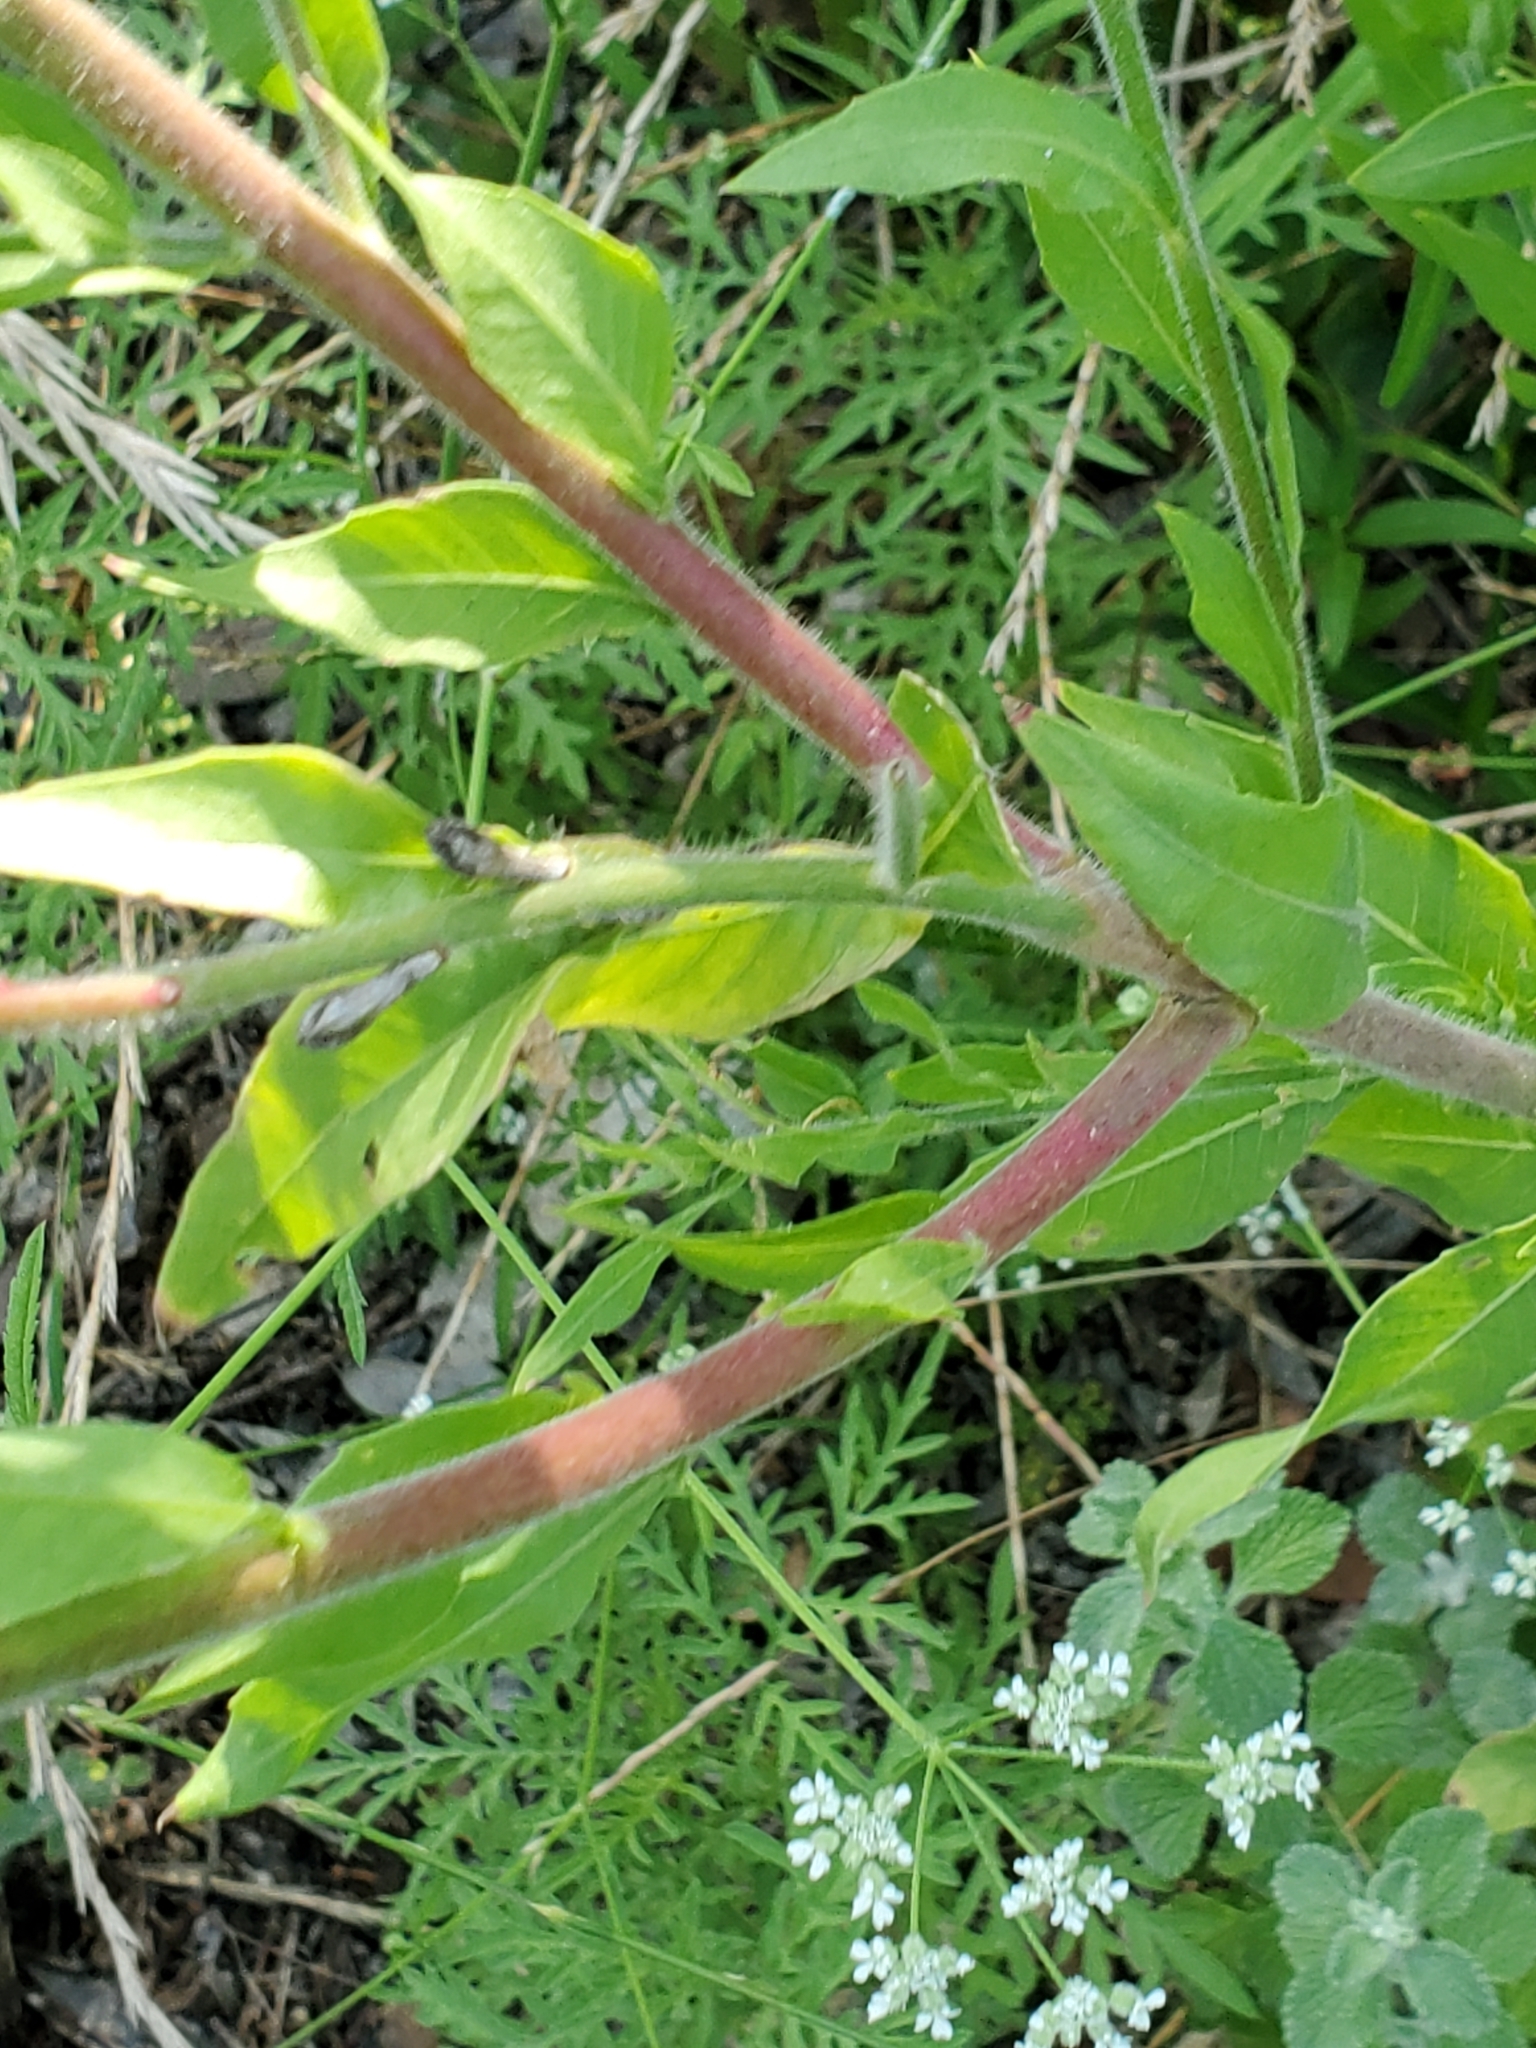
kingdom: Plantae
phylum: Tracheophyta
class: Magnoliopsida
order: Myrtales
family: Onagraceae
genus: Oenothera
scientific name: Oenothera curtiflora
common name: Velvetweed
